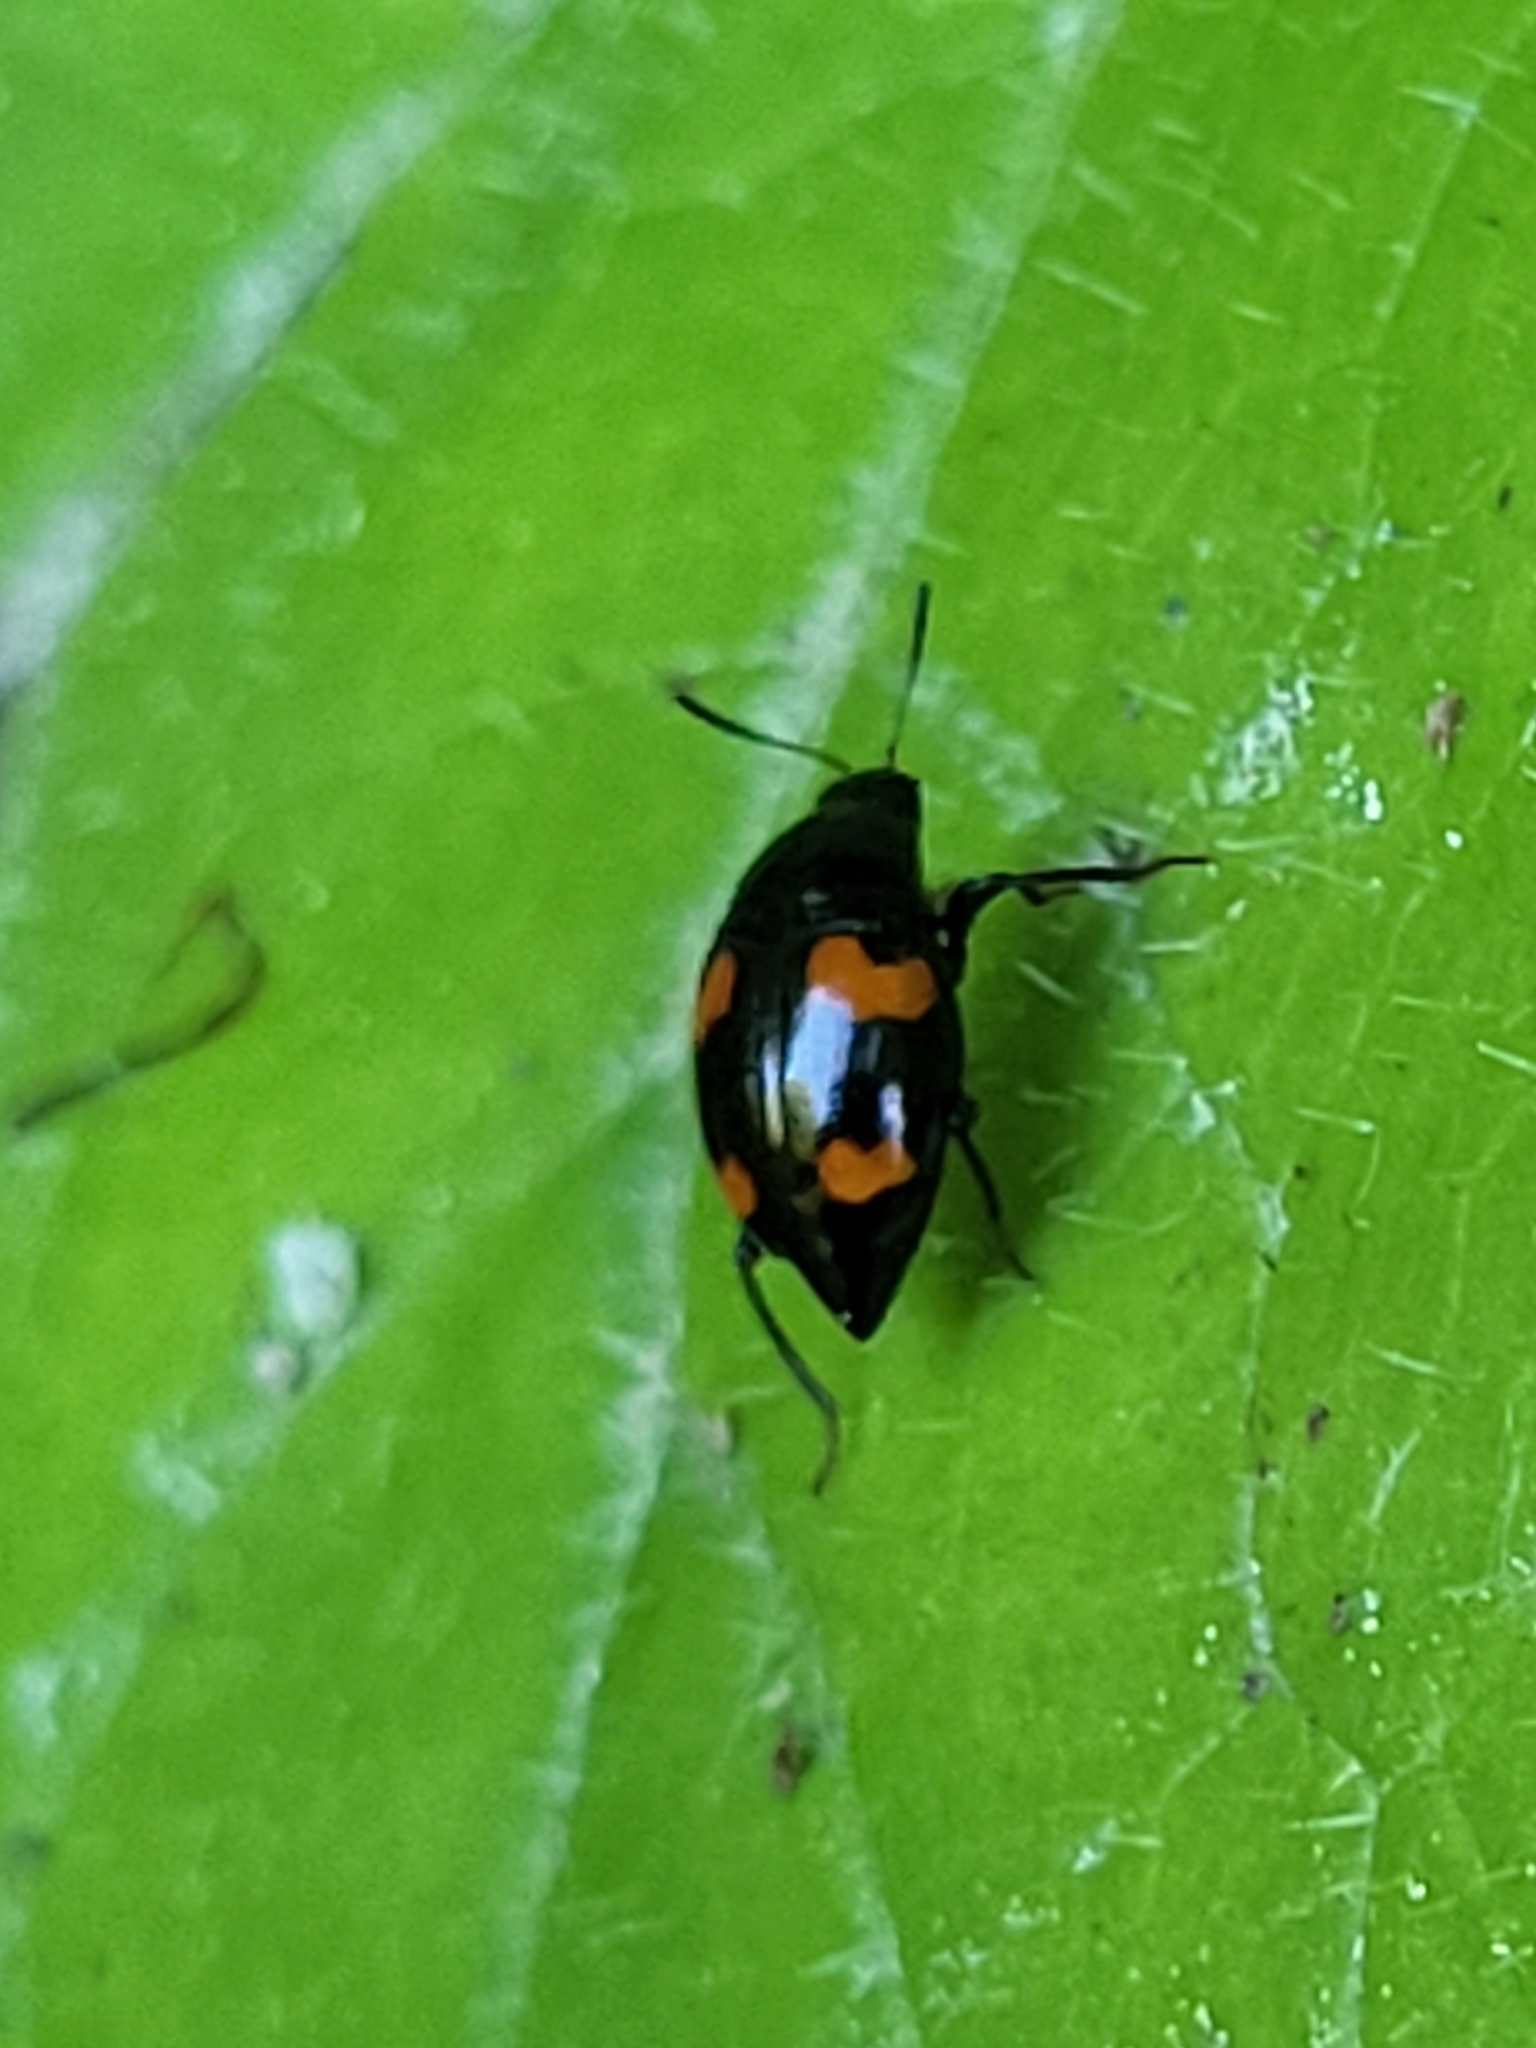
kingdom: Animalia
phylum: Arthropoda
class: Insecta
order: Coleoptera
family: Staphylinidae
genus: Scaphidium
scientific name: Scaphidium quadrimaculatum
